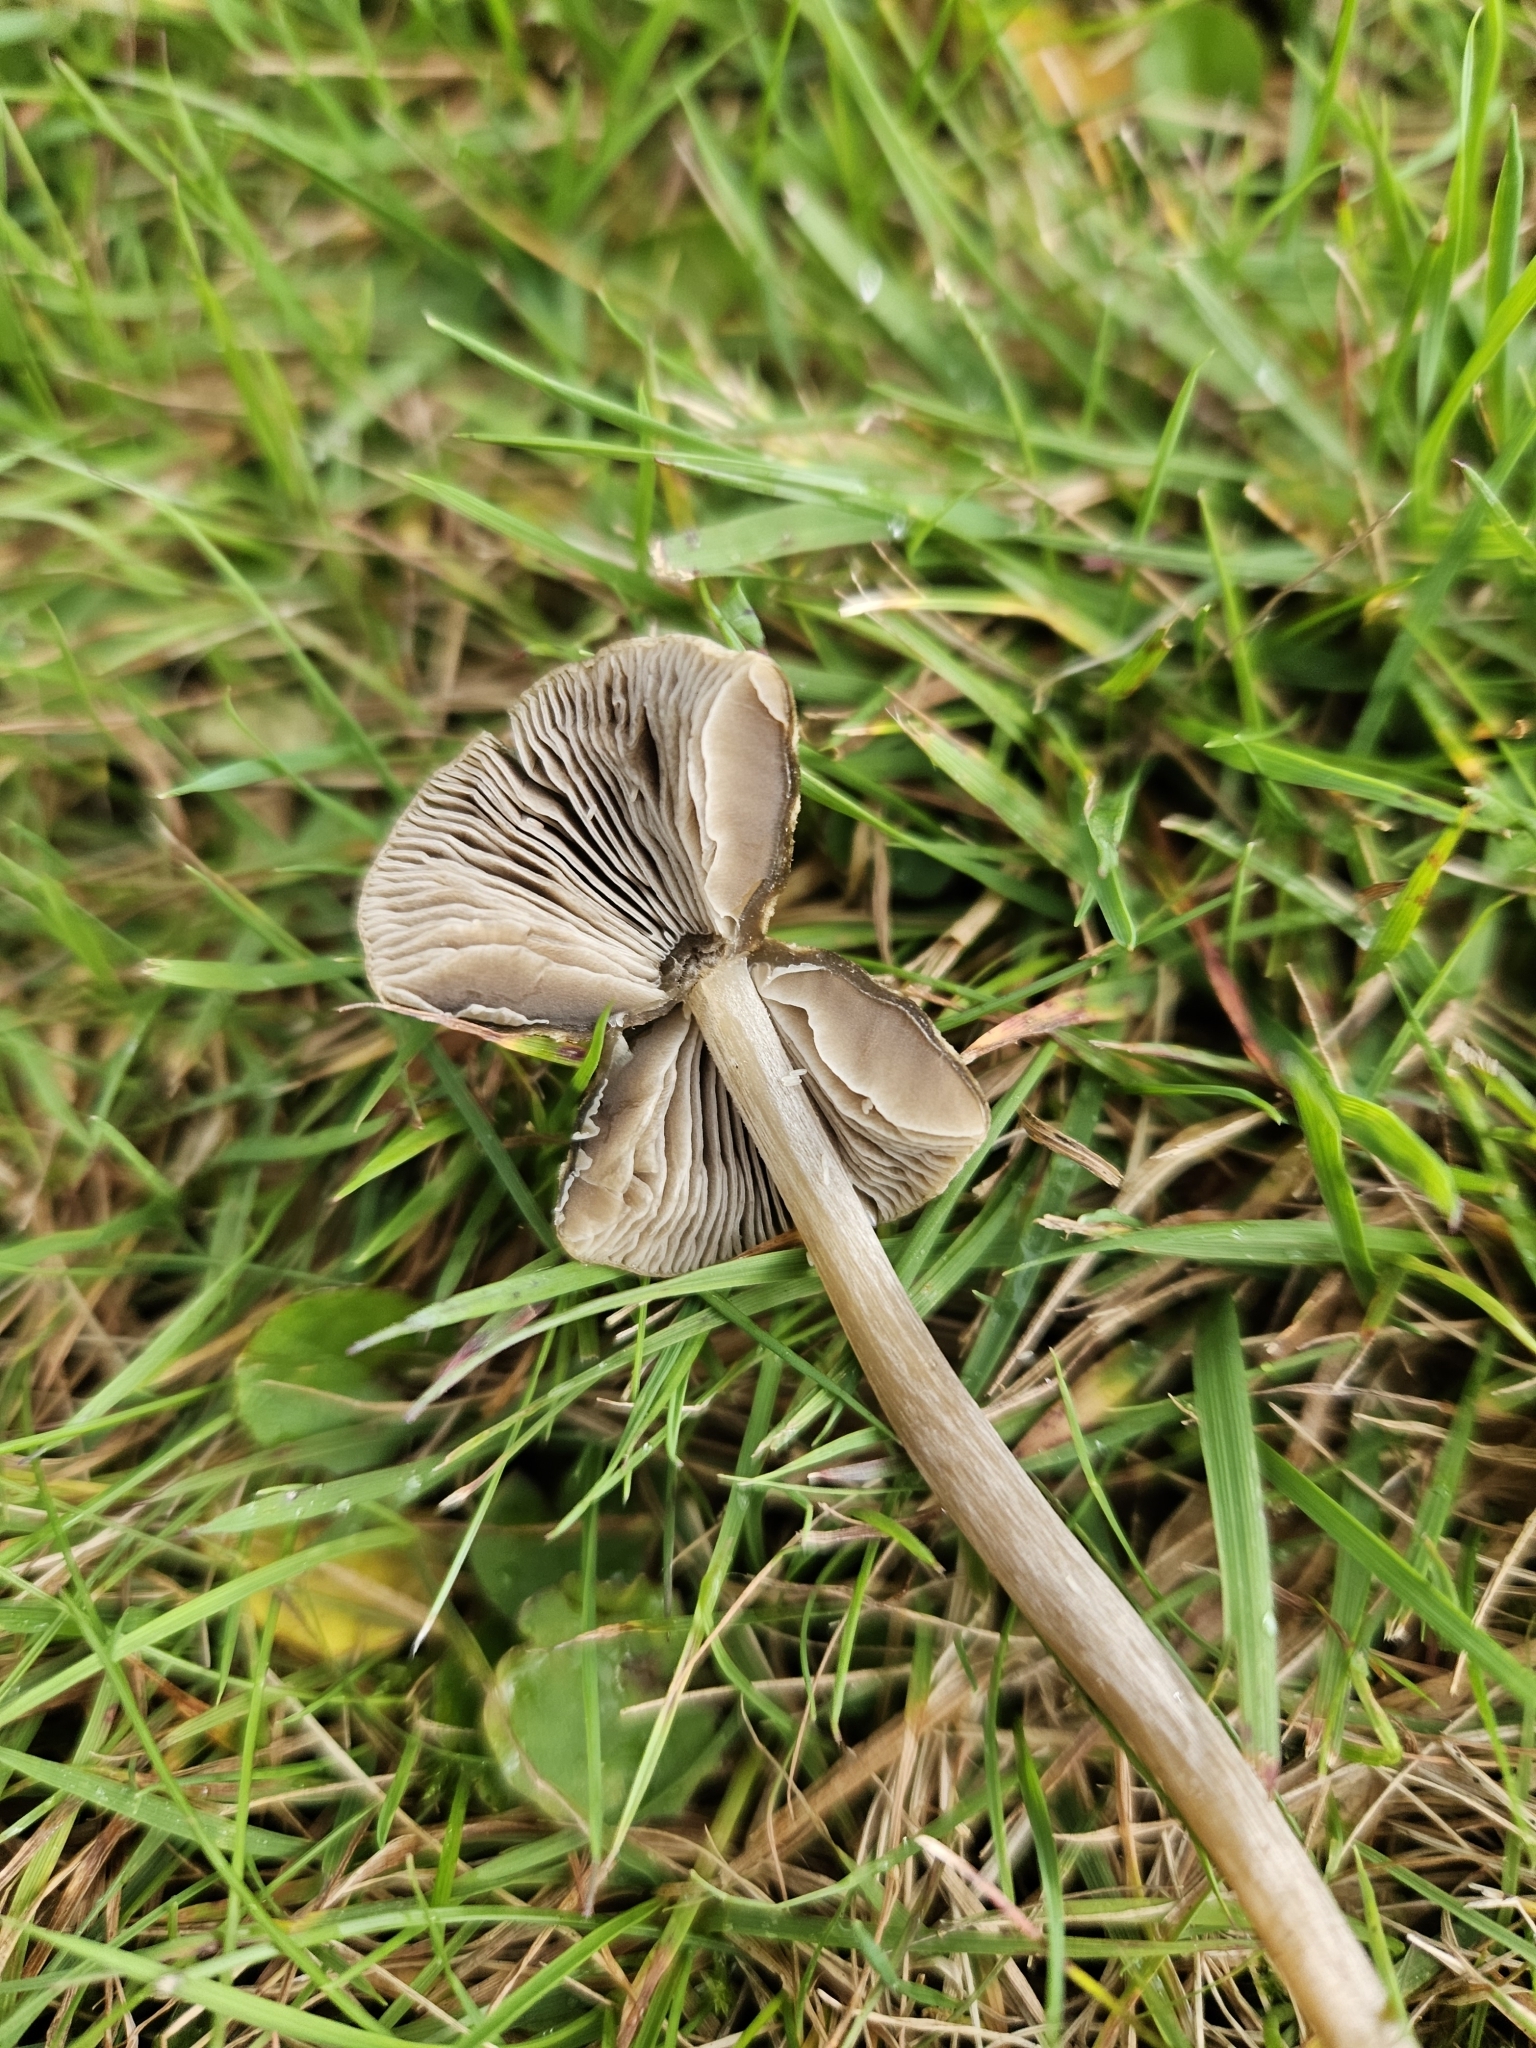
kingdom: Fungi
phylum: Basidiomycota
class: Agaricomycetes
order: Agaricales
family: Entolomataceae
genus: Entoloma
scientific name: Entoloma perzonatum
